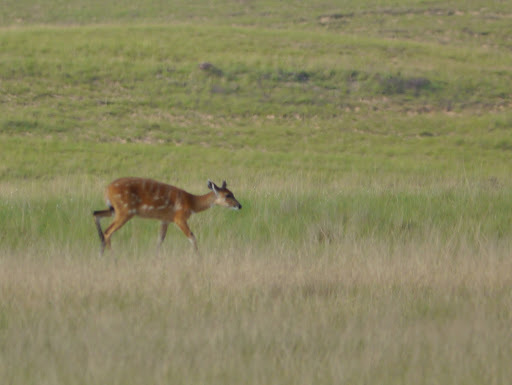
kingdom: Animalia
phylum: Chordata
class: Mammalia
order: Artiodactyla
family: Bovidae
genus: Tragelaphus
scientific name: Tragelaphus spekii
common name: Sitatunga
